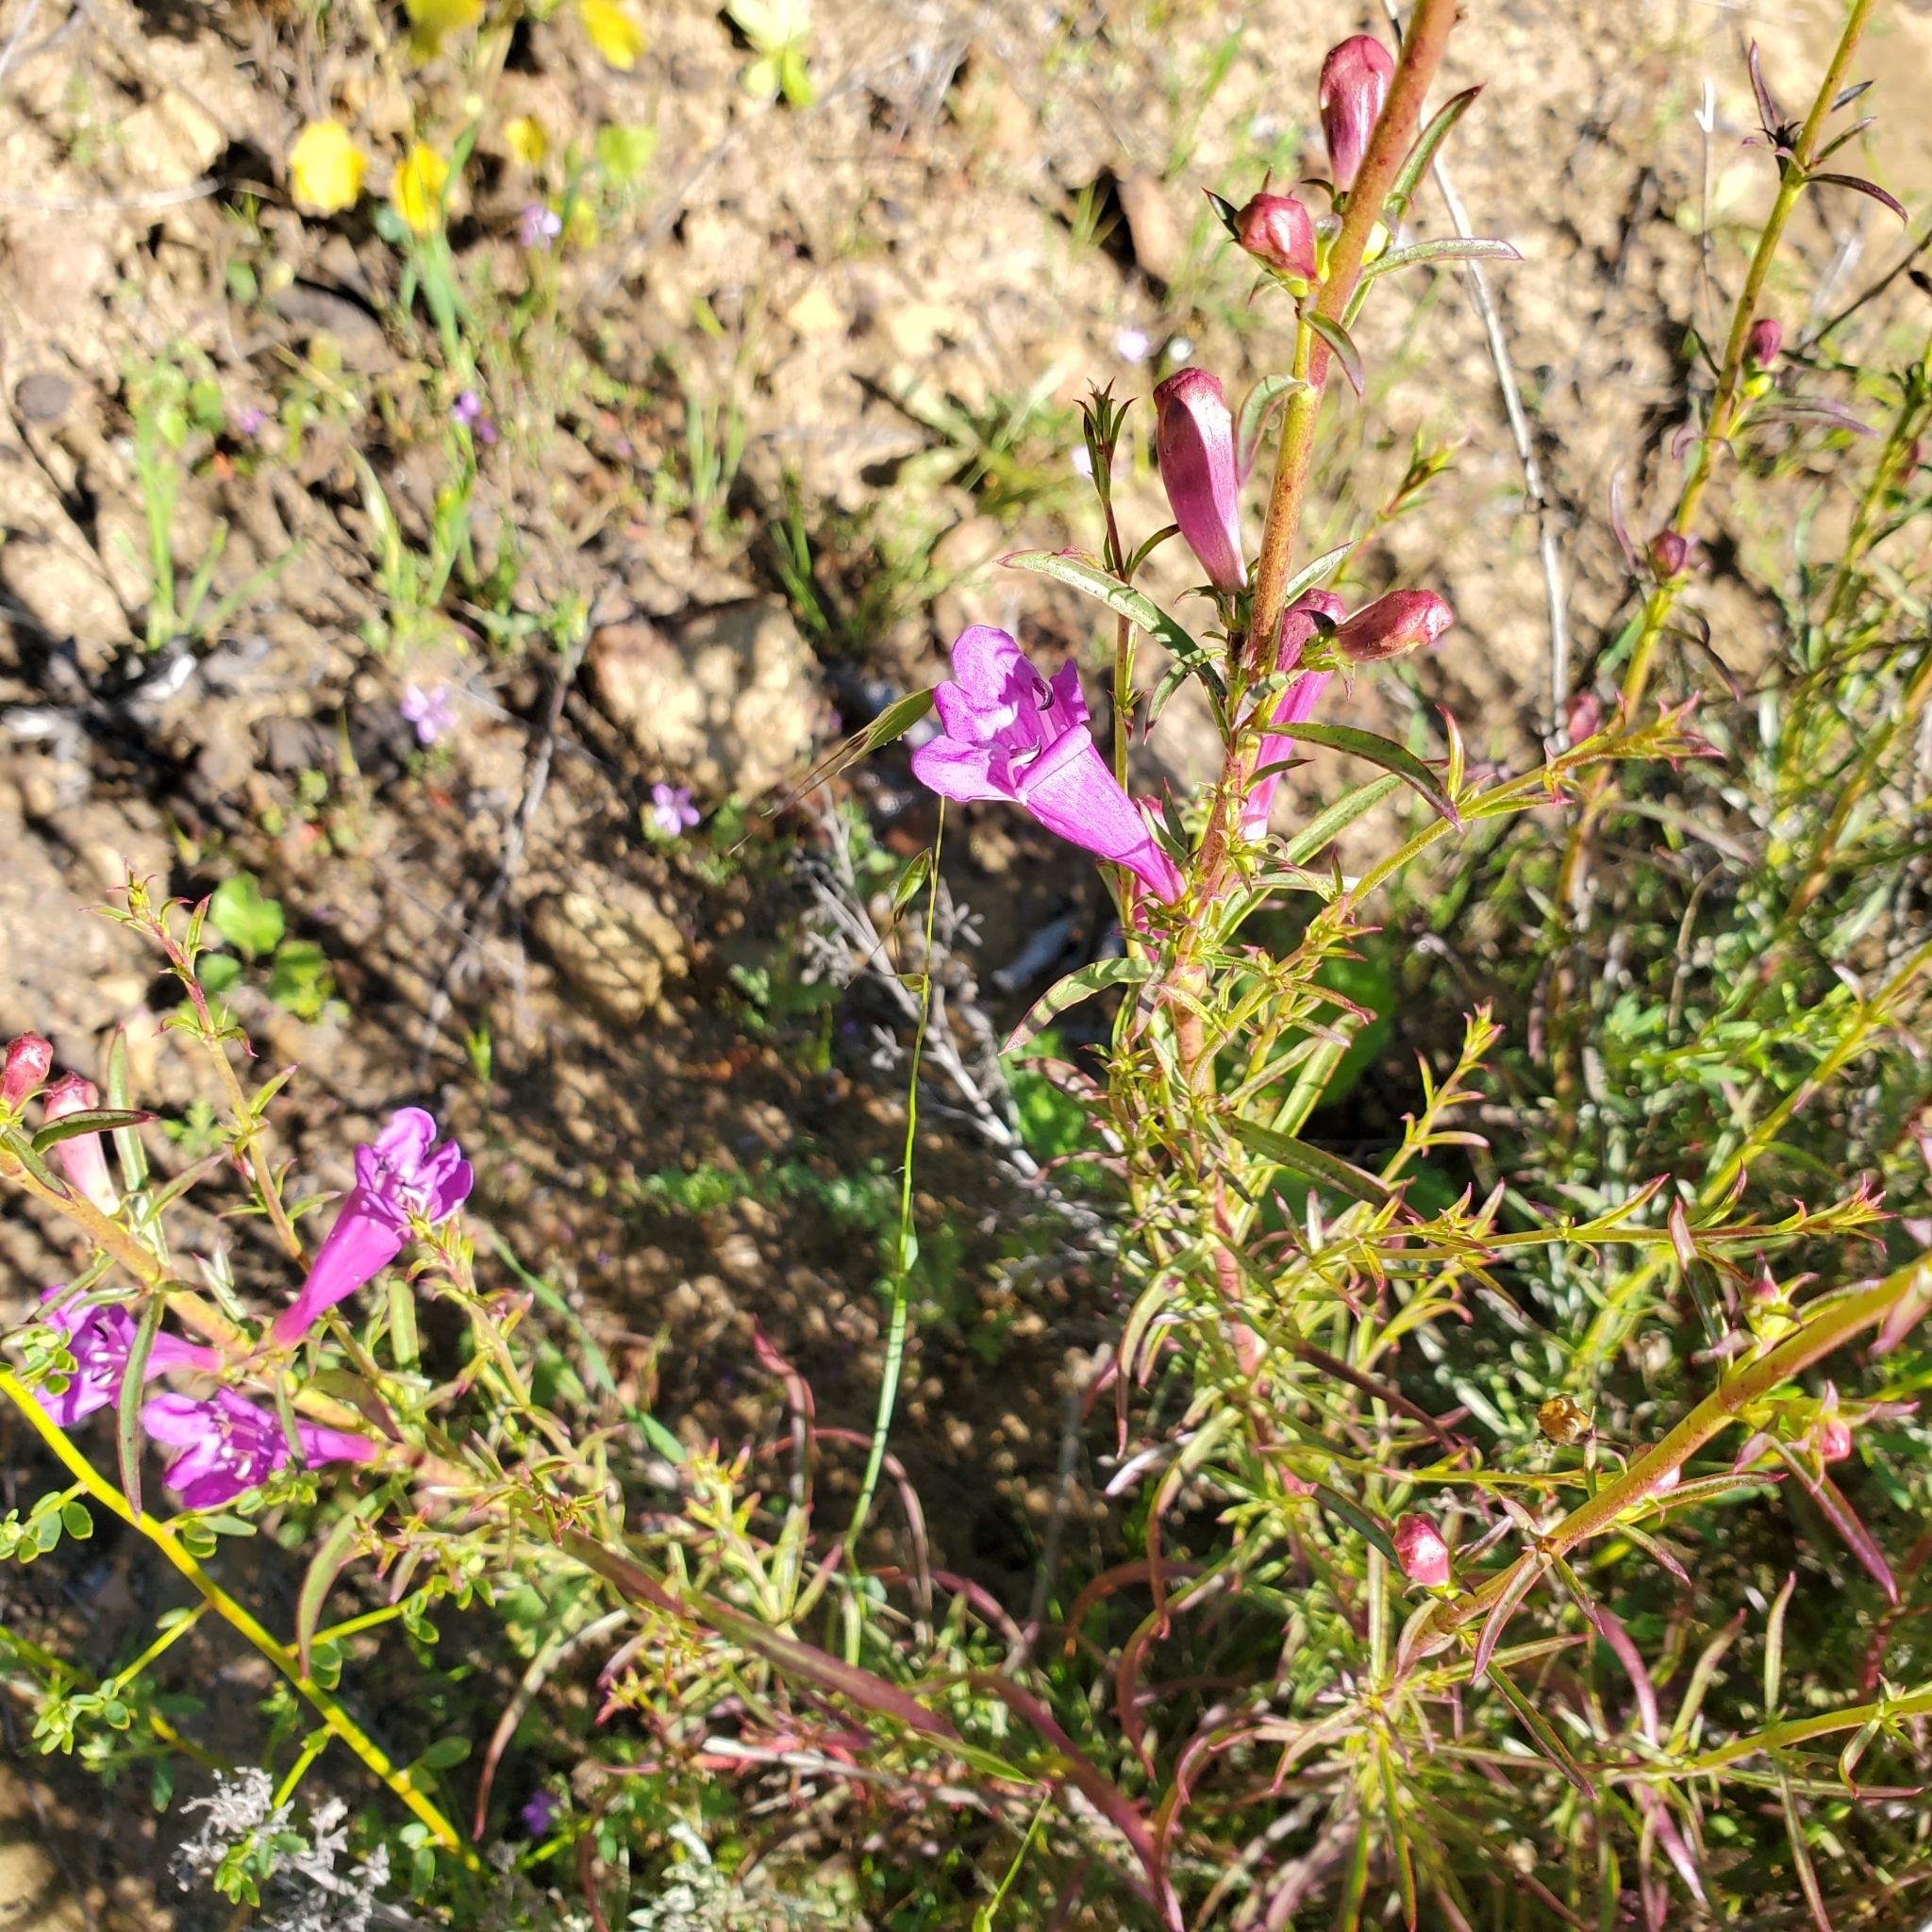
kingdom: Plantae
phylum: Tracheophyta
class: Magnoliopsida
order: Lamiales
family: Plantaginaceae
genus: Penstemon
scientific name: Penstemon heterophyllus
